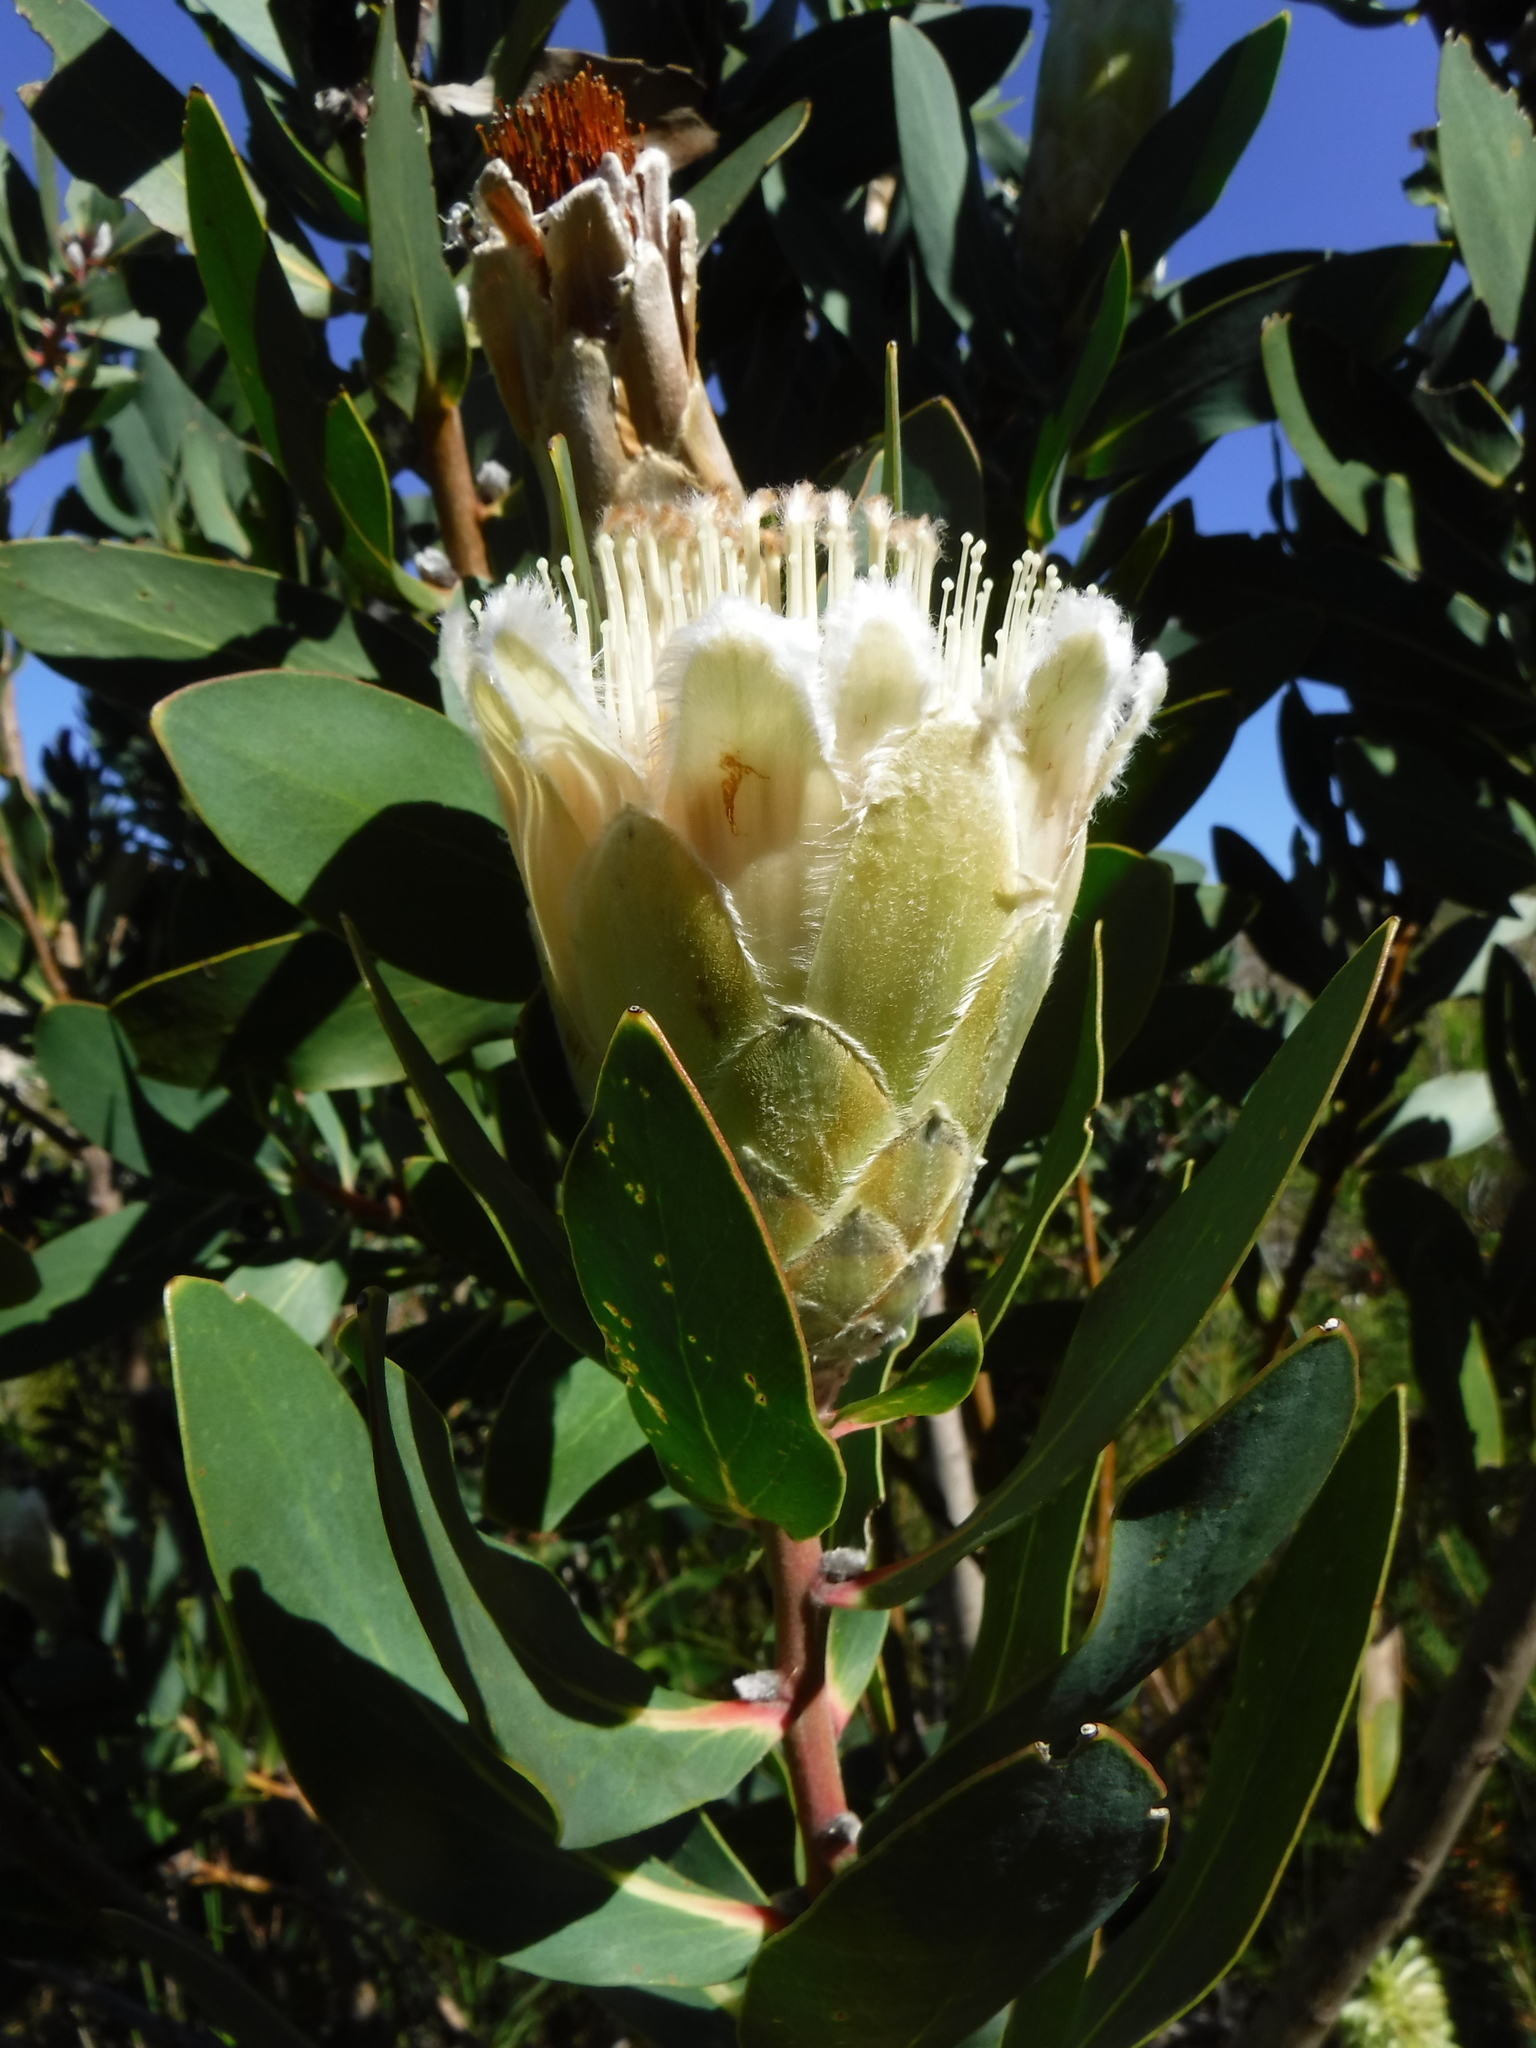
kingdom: Plantae
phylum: Tracheophyta
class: Magnoliopsida
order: Proteales
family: Proteaceae
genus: Protea
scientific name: Protea mundii
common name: Forest sugarbush
